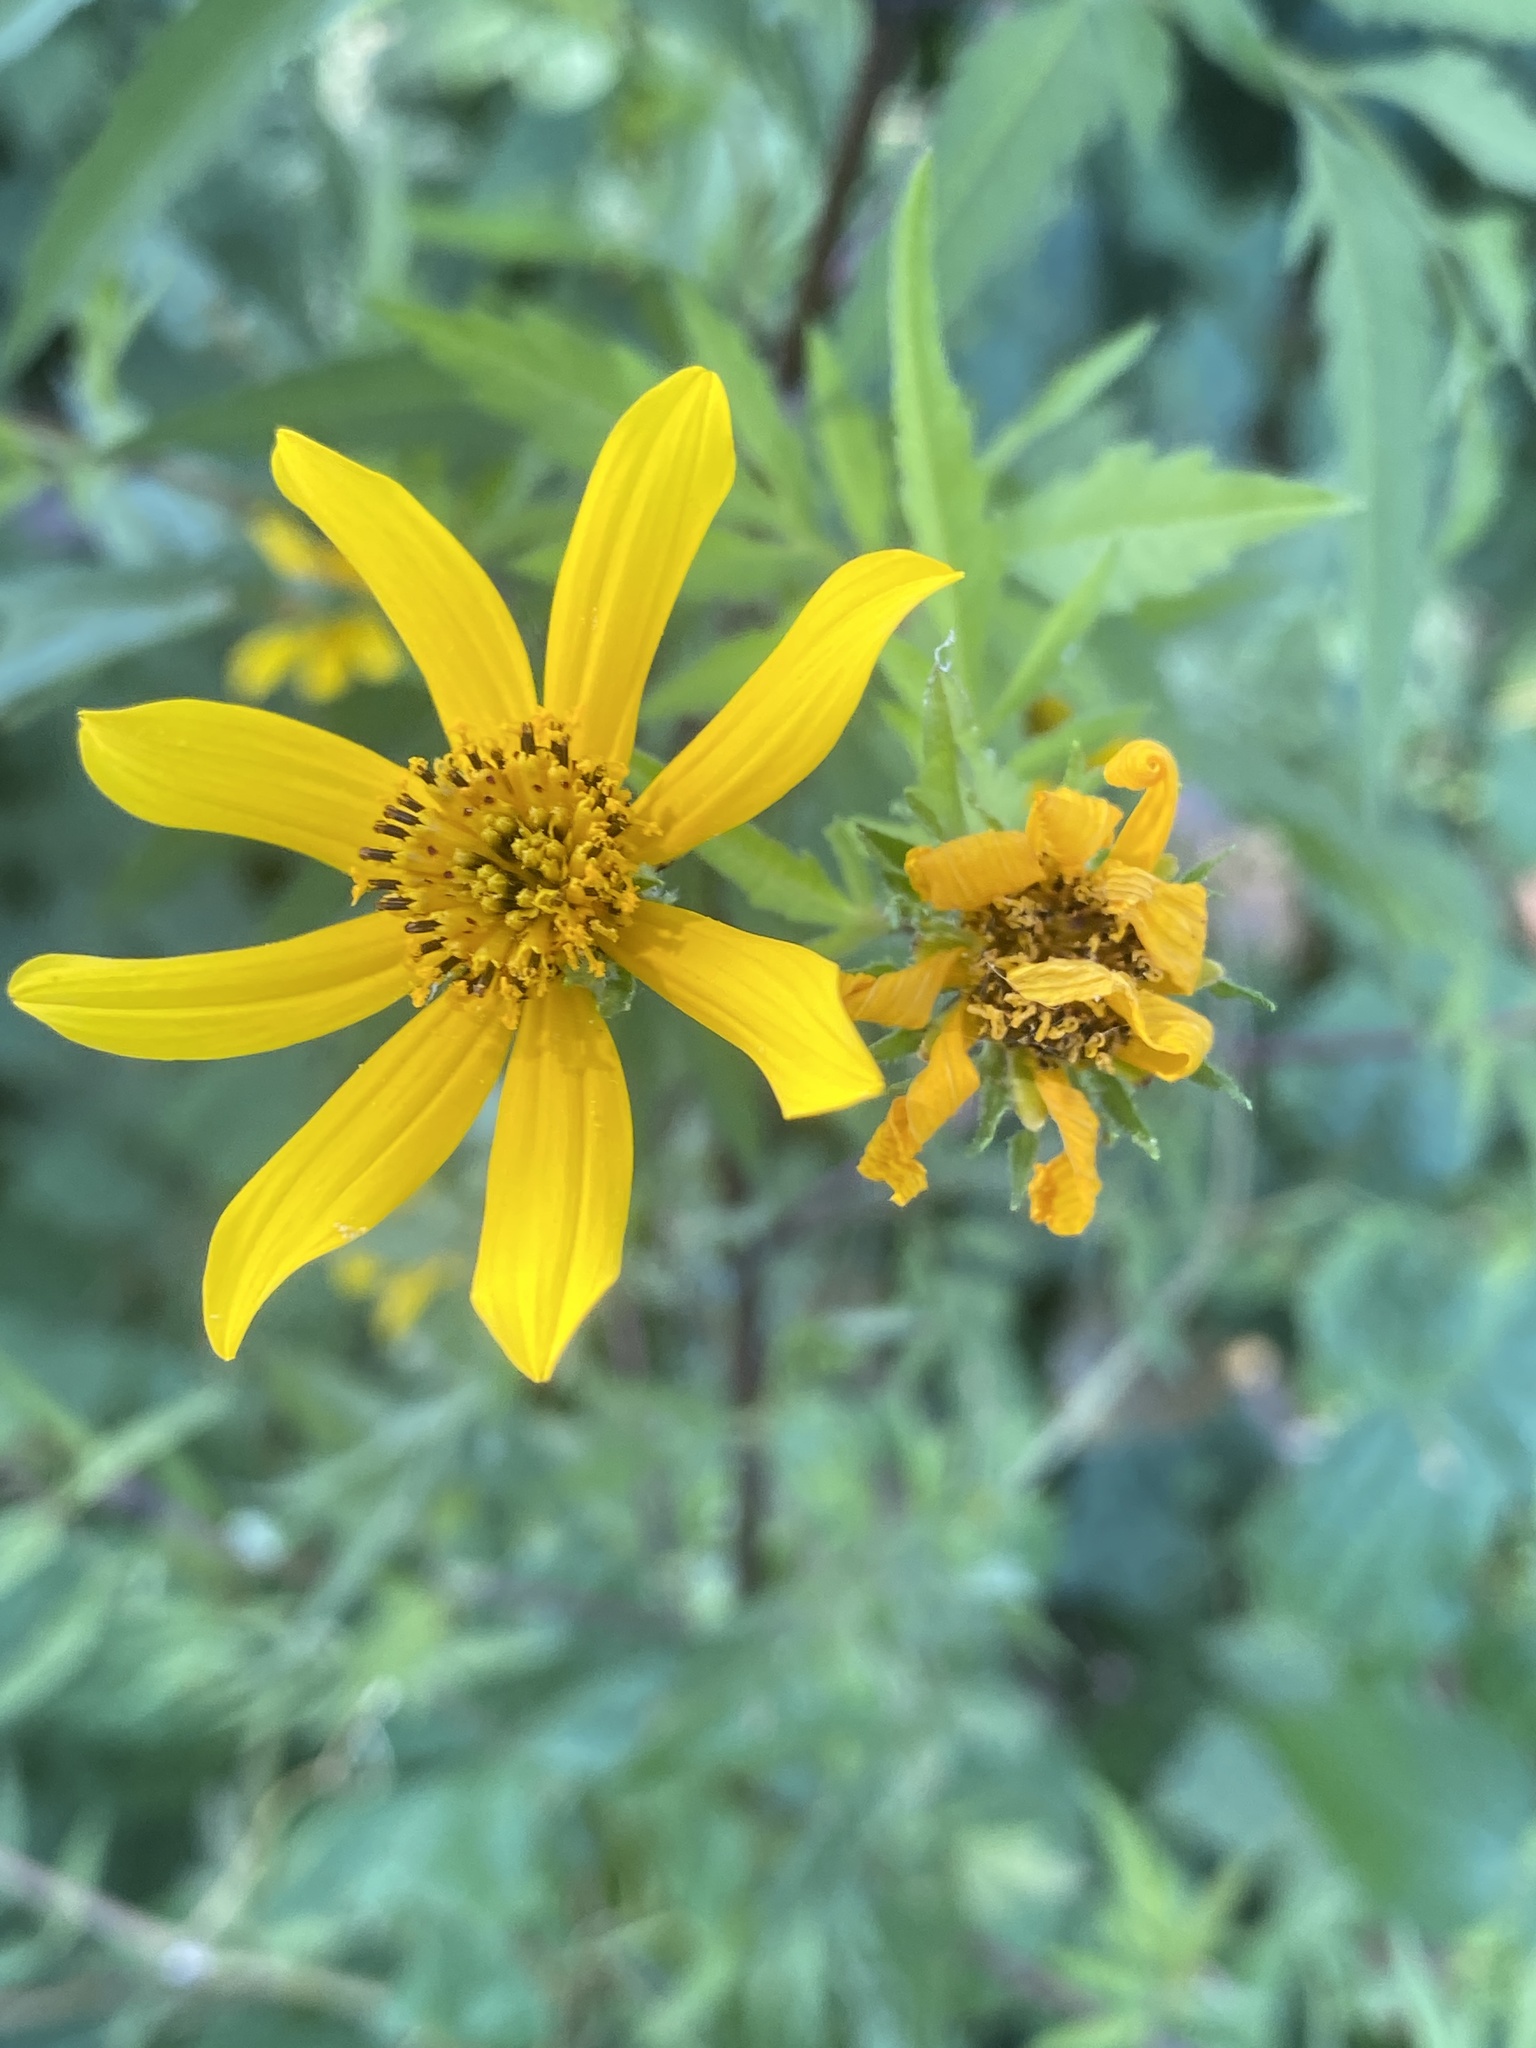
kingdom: Plantae
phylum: Tracheophyta
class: Magnoliopsida
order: Asterales
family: Asteraceae
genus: Bidens
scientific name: Bidens polylepis
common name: Awnless beggarticks
